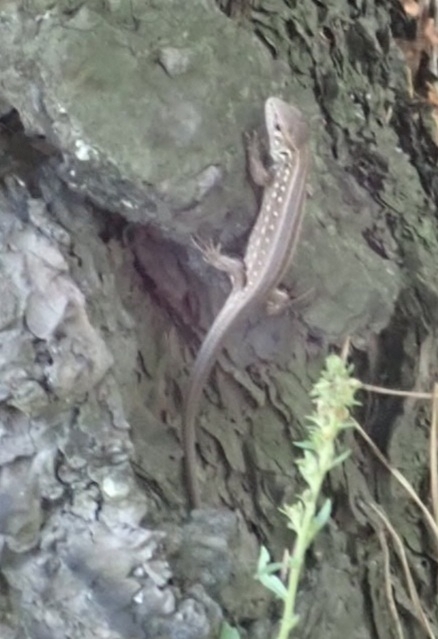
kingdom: Animalia
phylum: Chordata
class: Squamata
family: Lacertidae
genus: Lacerta
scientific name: Lacerta agilis
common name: Sand lizard
